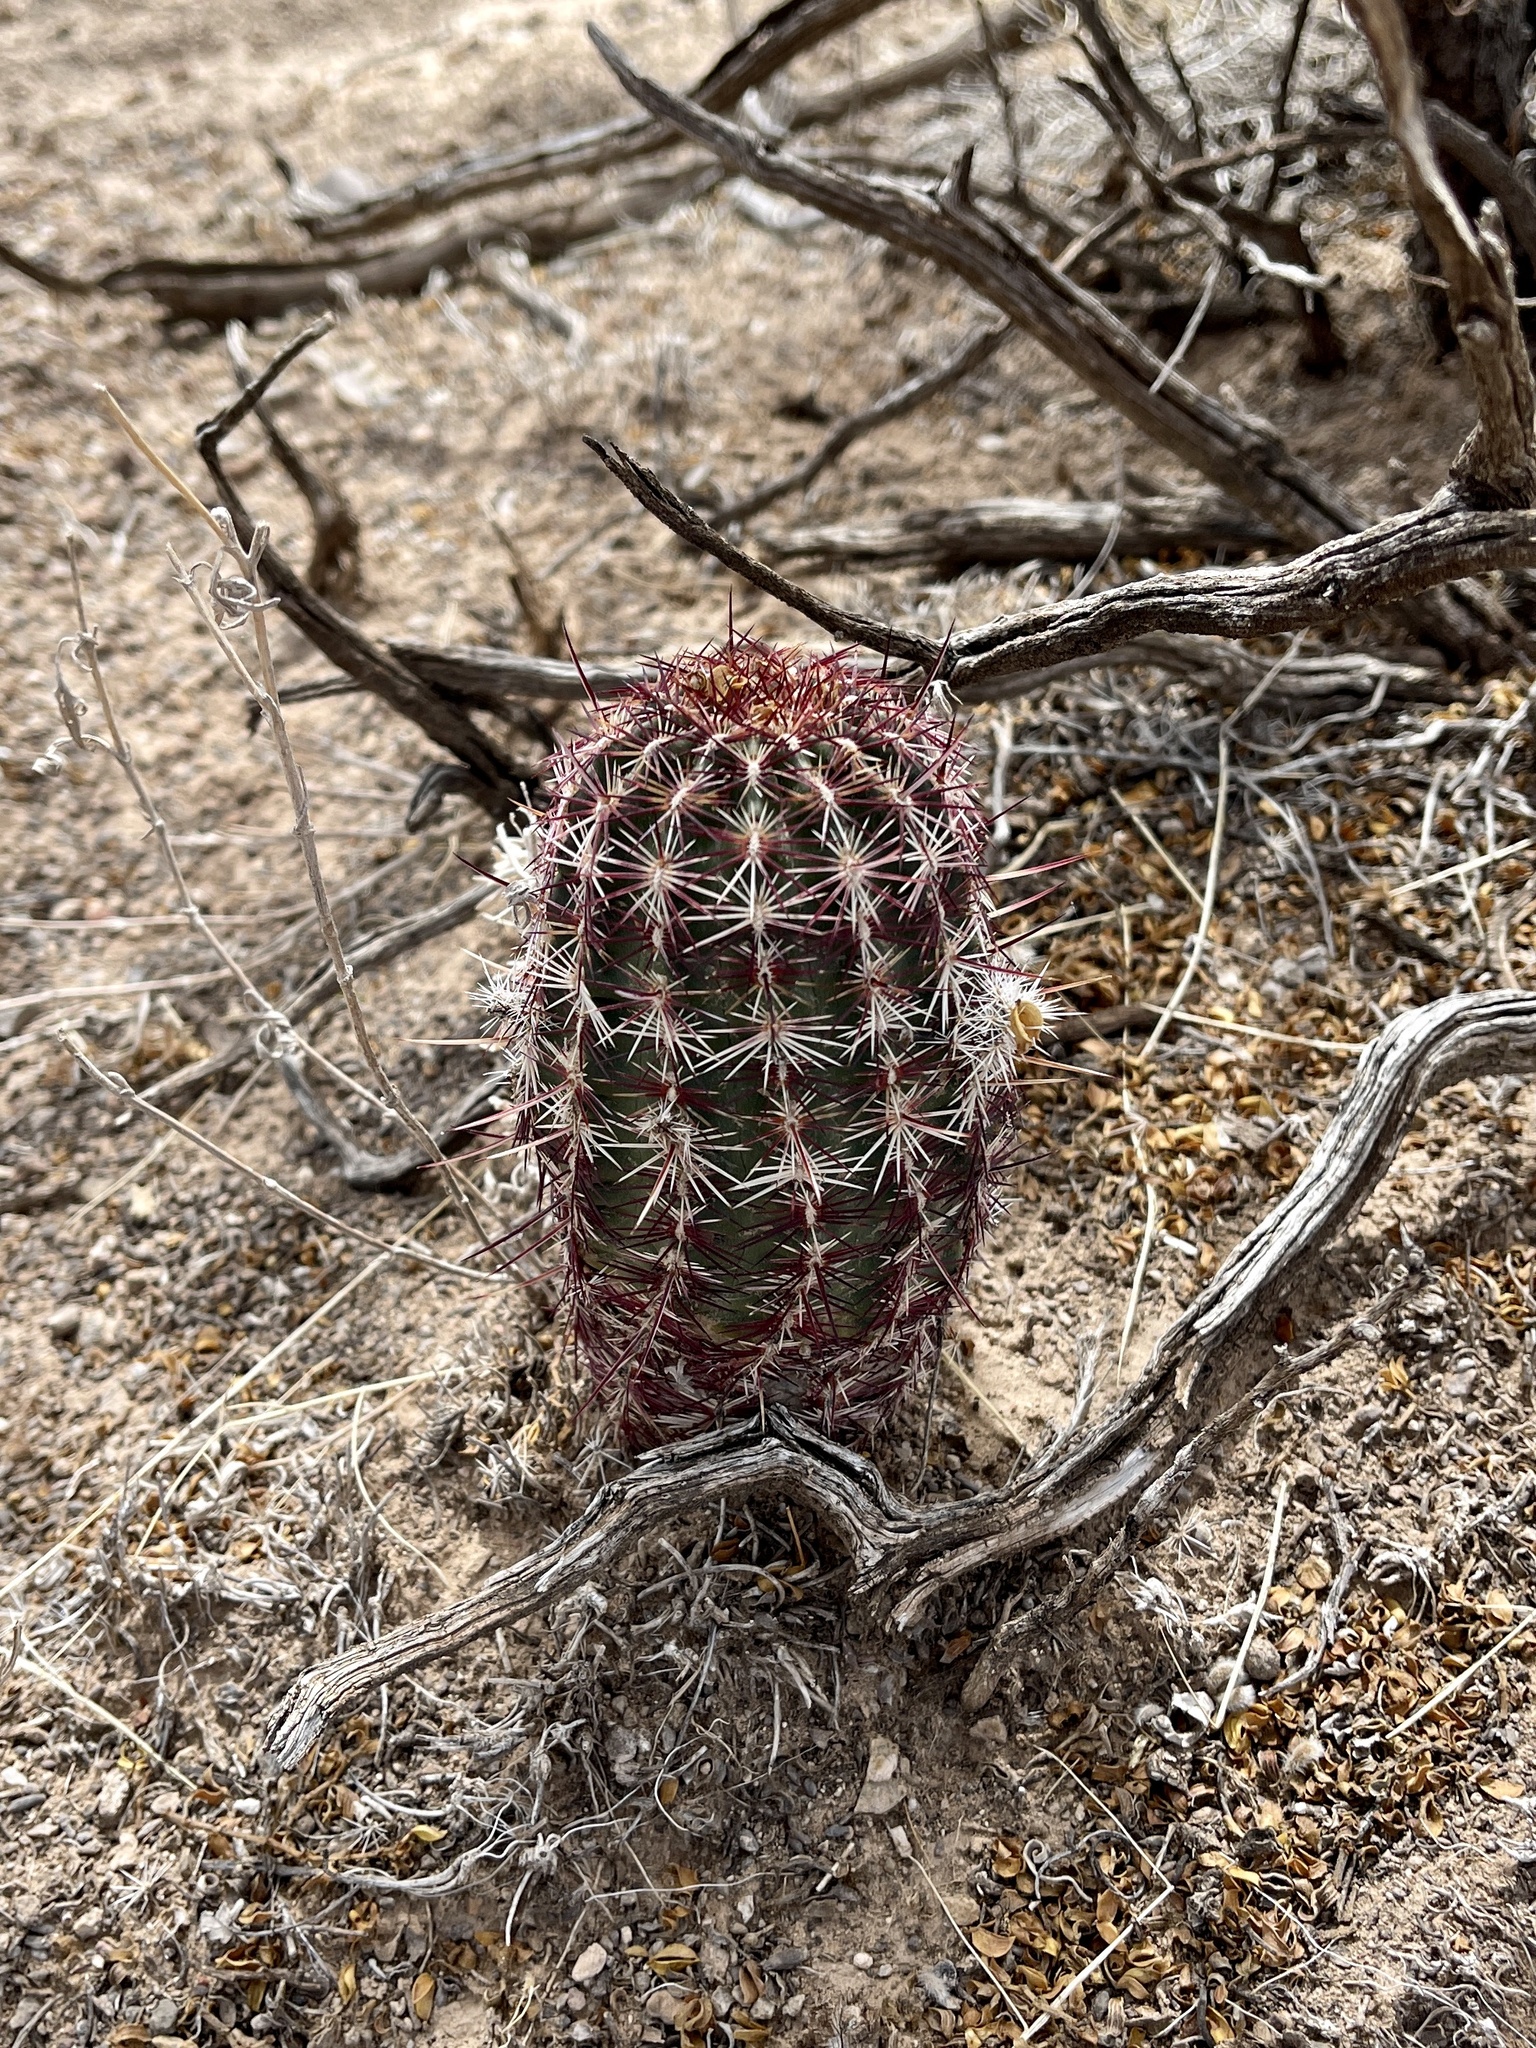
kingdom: Plantae
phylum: Tracheophyta
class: Magnoliopsida
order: Caryophyllales
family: Cactaceae
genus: Echinocereus
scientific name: Echinocereus viridiflorus
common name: Nylon hedgehog cactus
